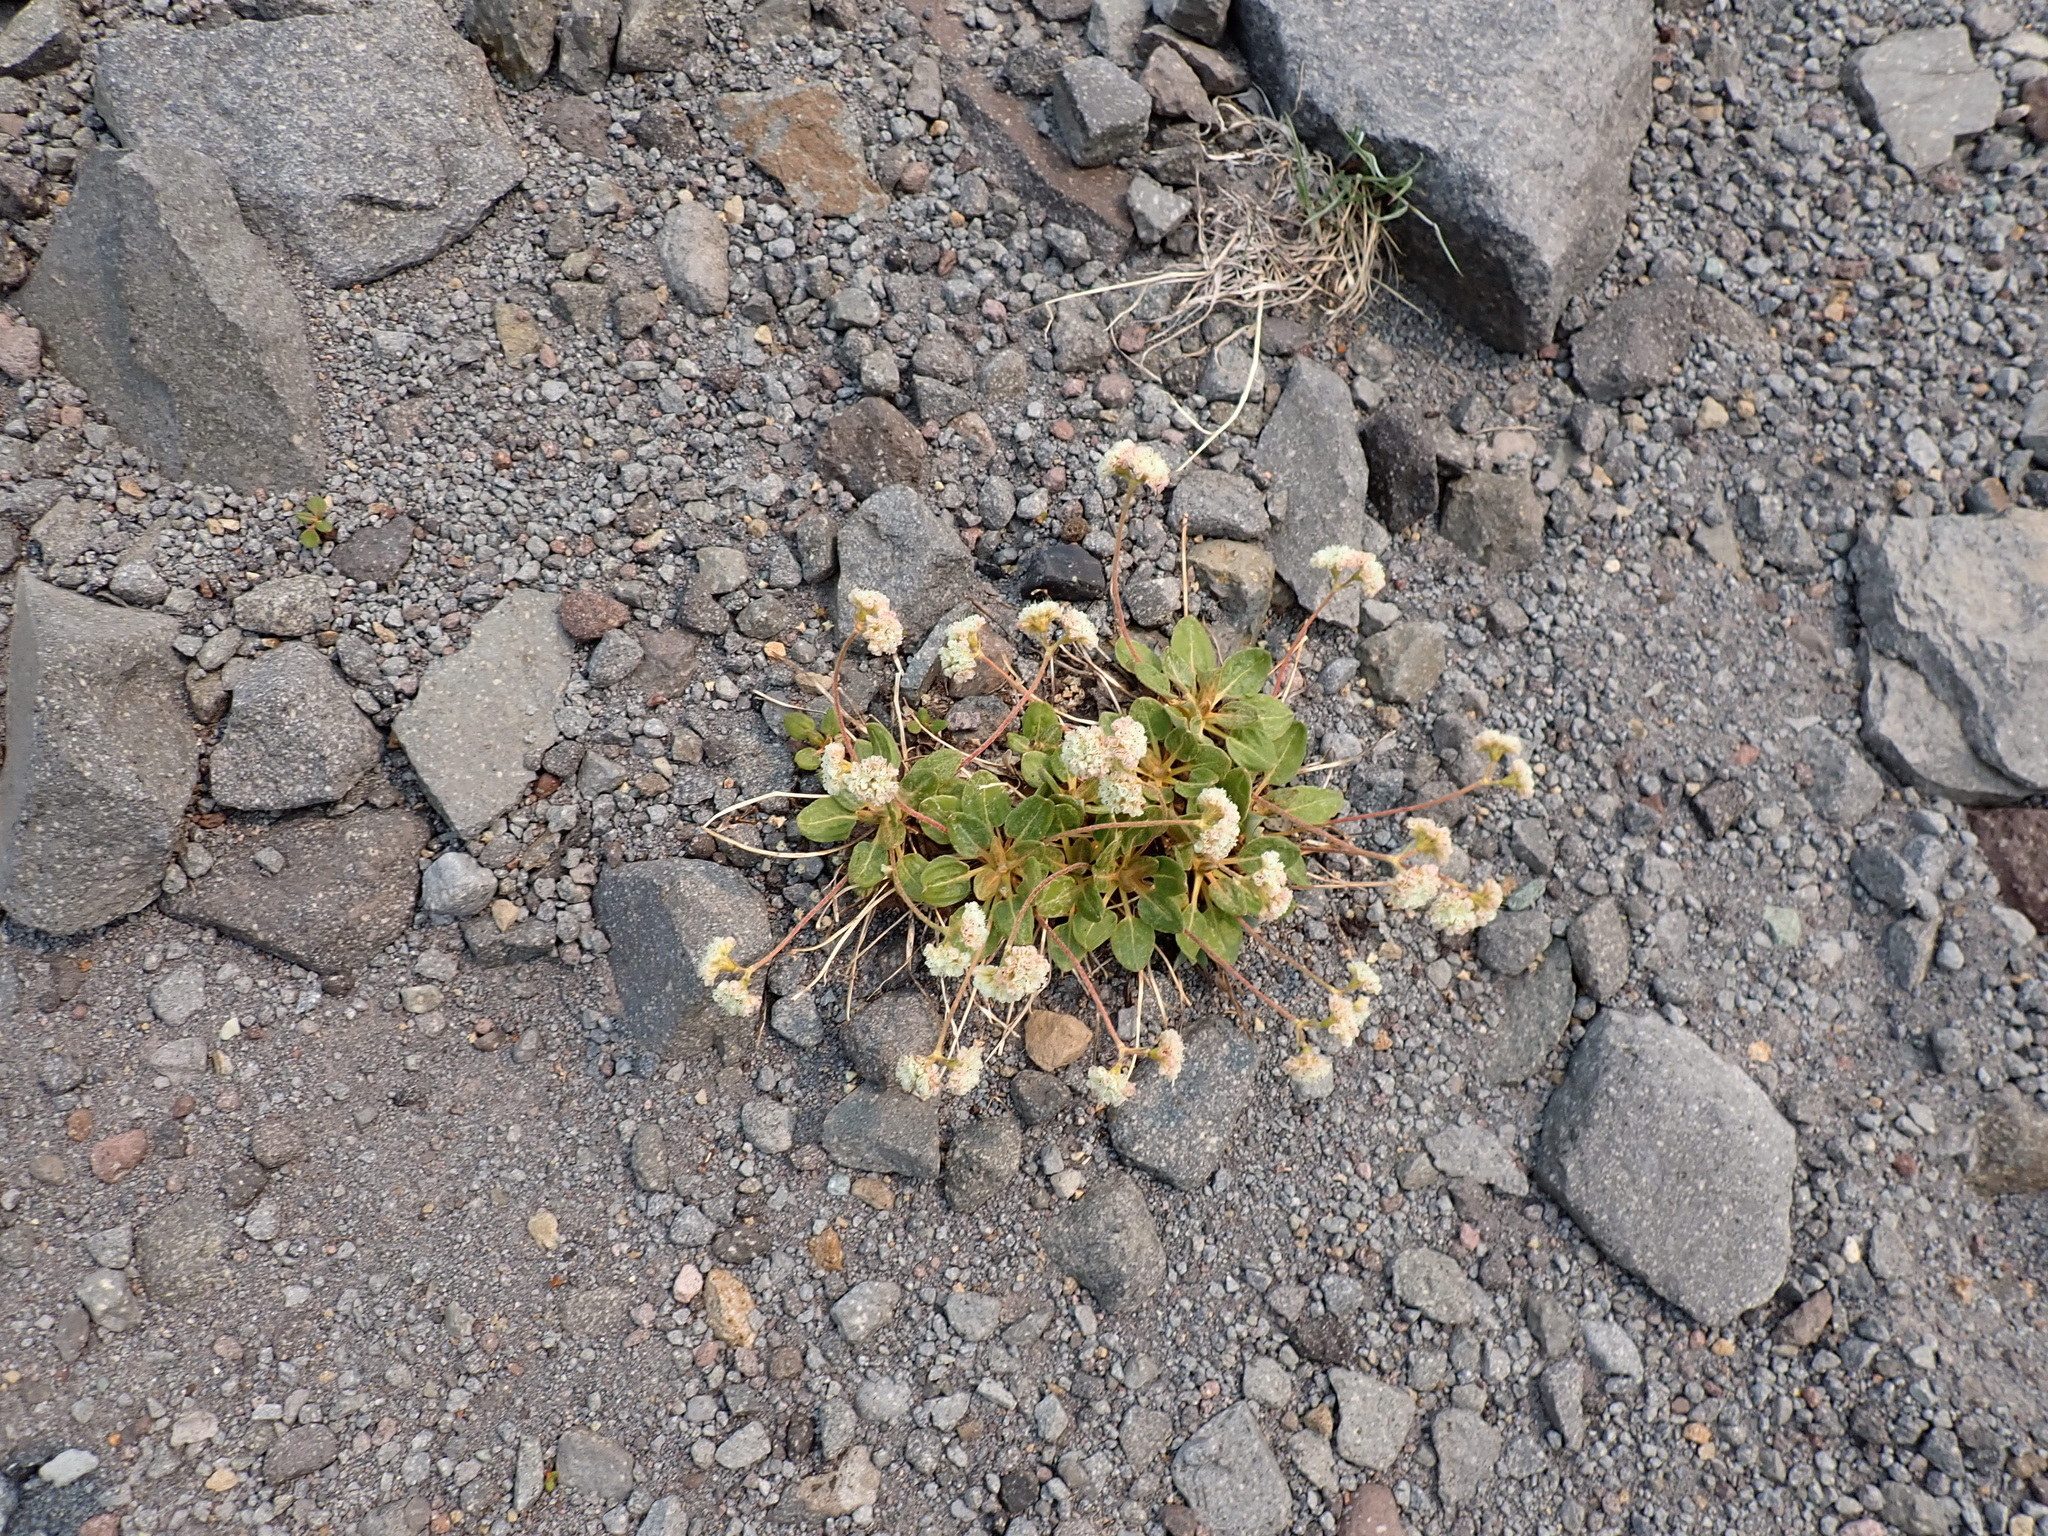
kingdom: Plantae
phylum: Tracheophyta
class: Magnoliopsida
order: Caryophyllales
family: Polygonaceae
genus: Eriogonum
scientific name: Eriogonum pyrolifolium
